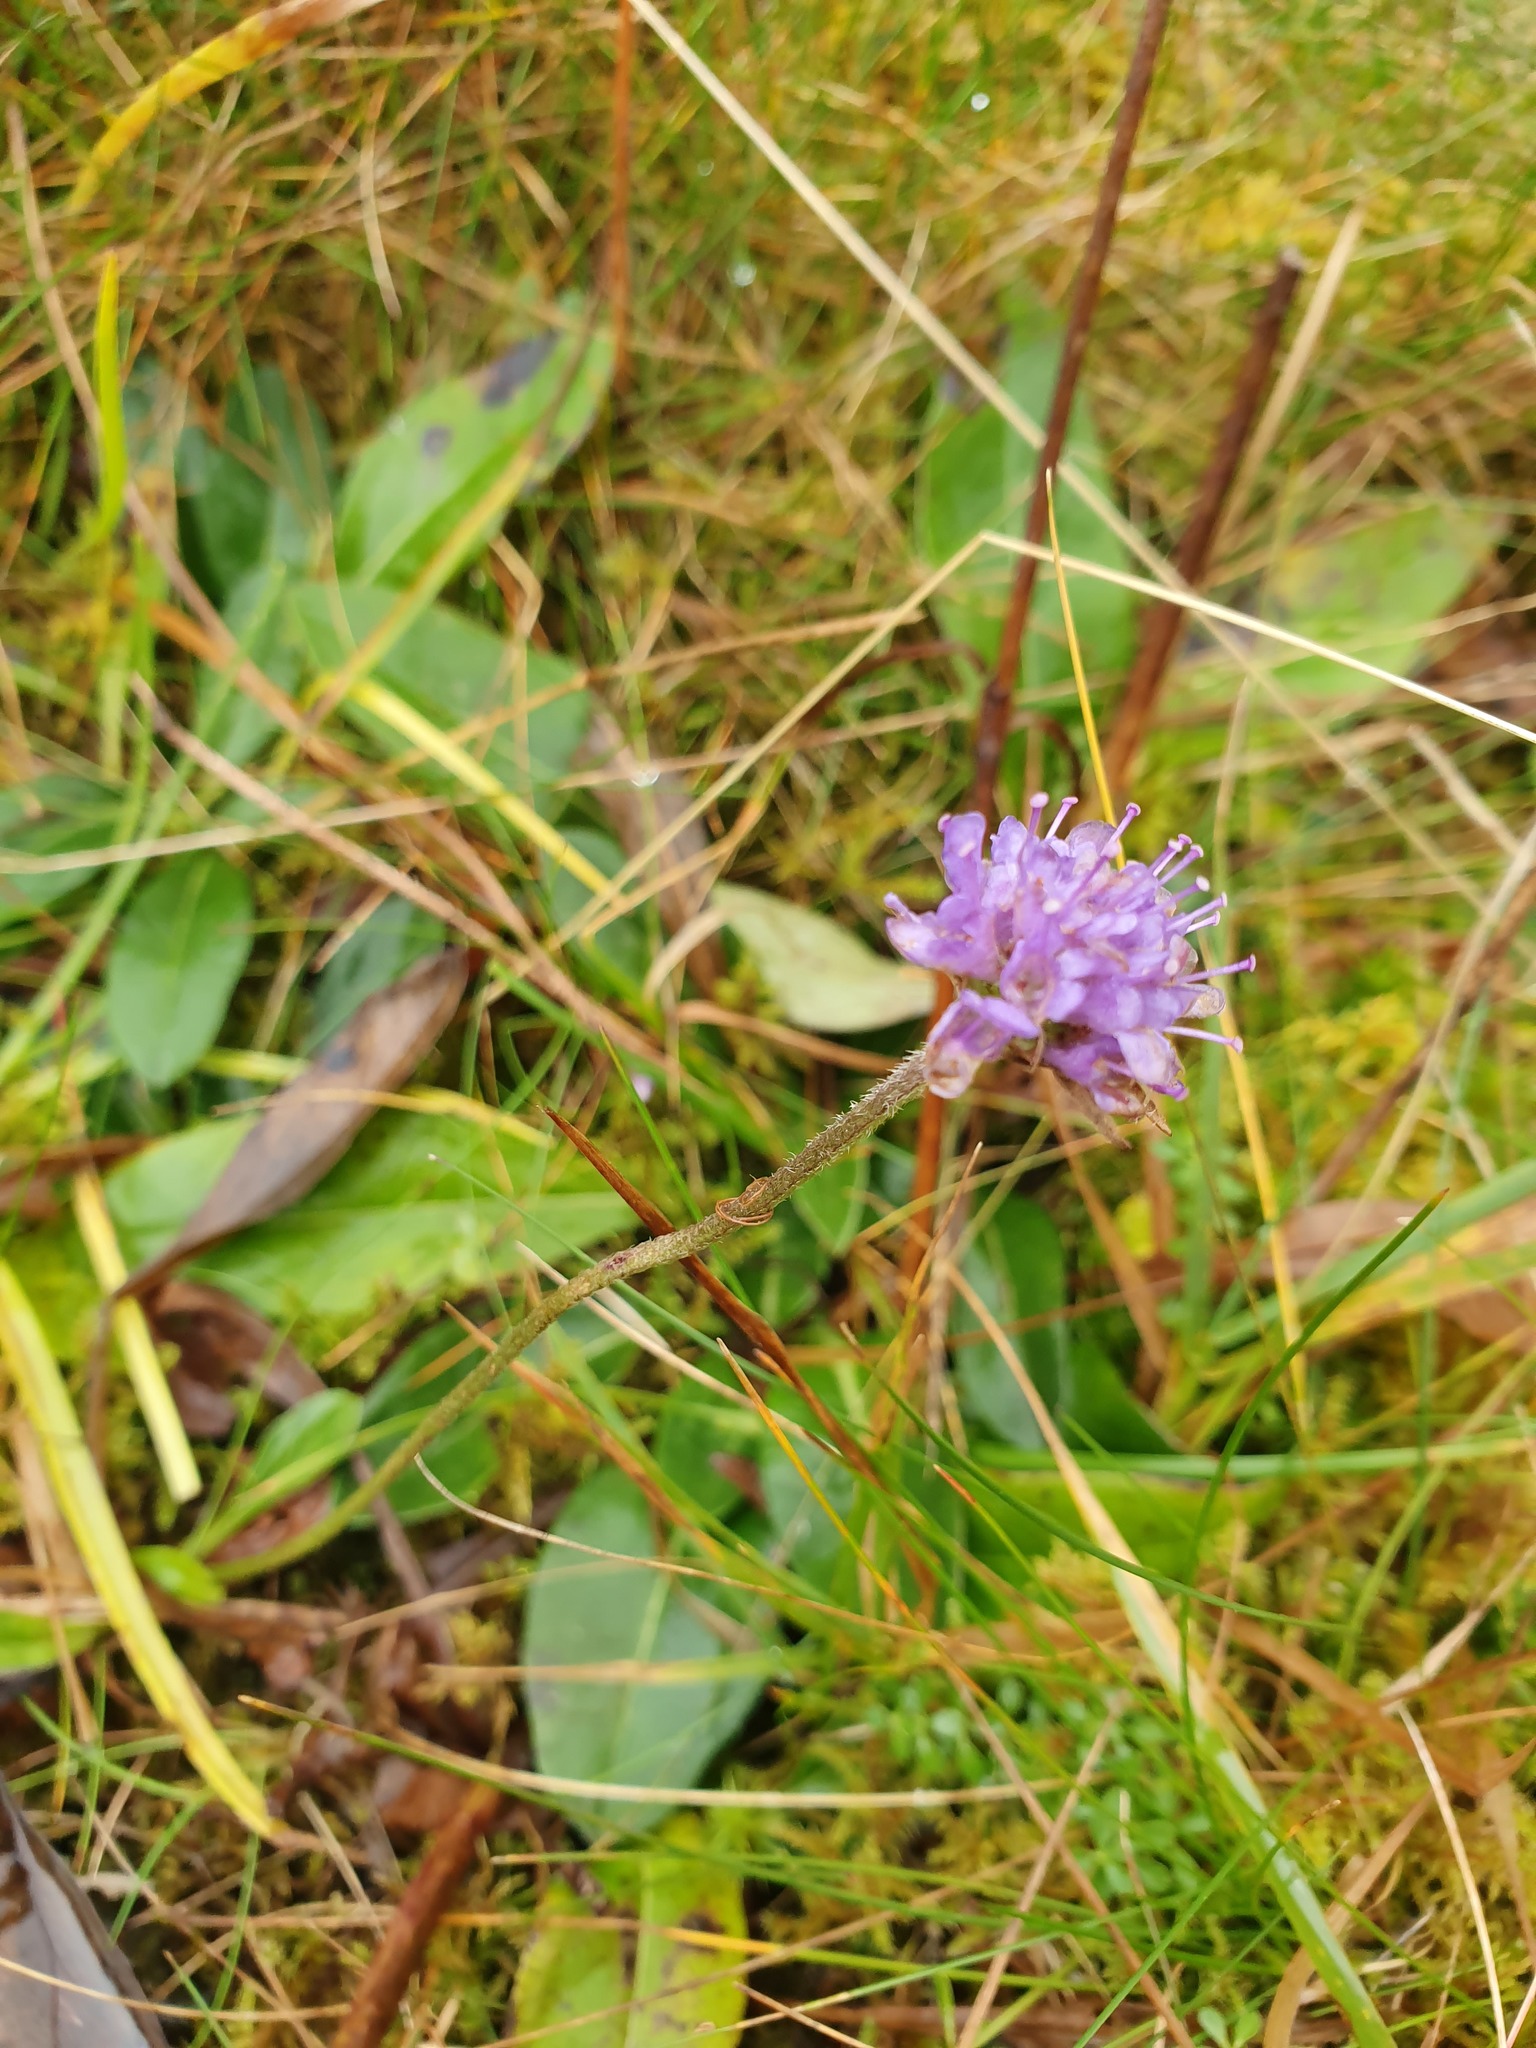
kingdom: Plantae
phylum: Tracheophyta
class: Magnoliopsida
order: Dipsacales
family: Caprifoliaceae
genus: Succisa
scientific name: Succisa pratensis
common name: Devil's-bit
